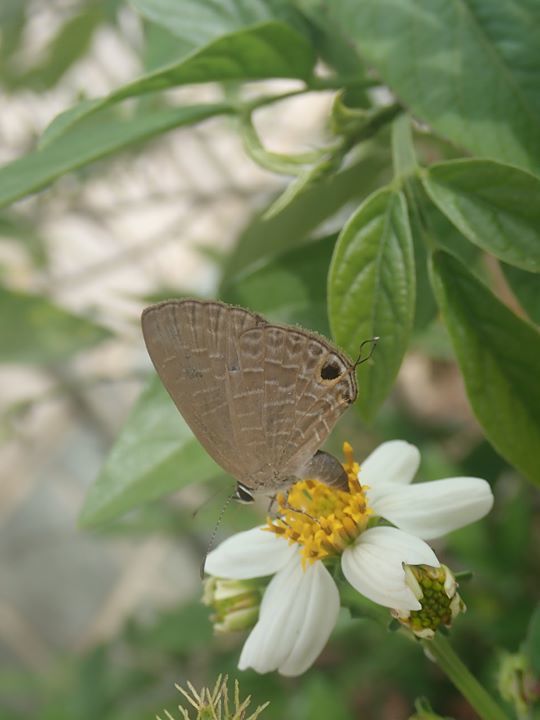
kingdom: Animalia
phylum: Arthropoda
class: Insecta
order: Lepidoptera
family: Lycaenidae
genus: Jamides
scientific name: Jamides bochus
